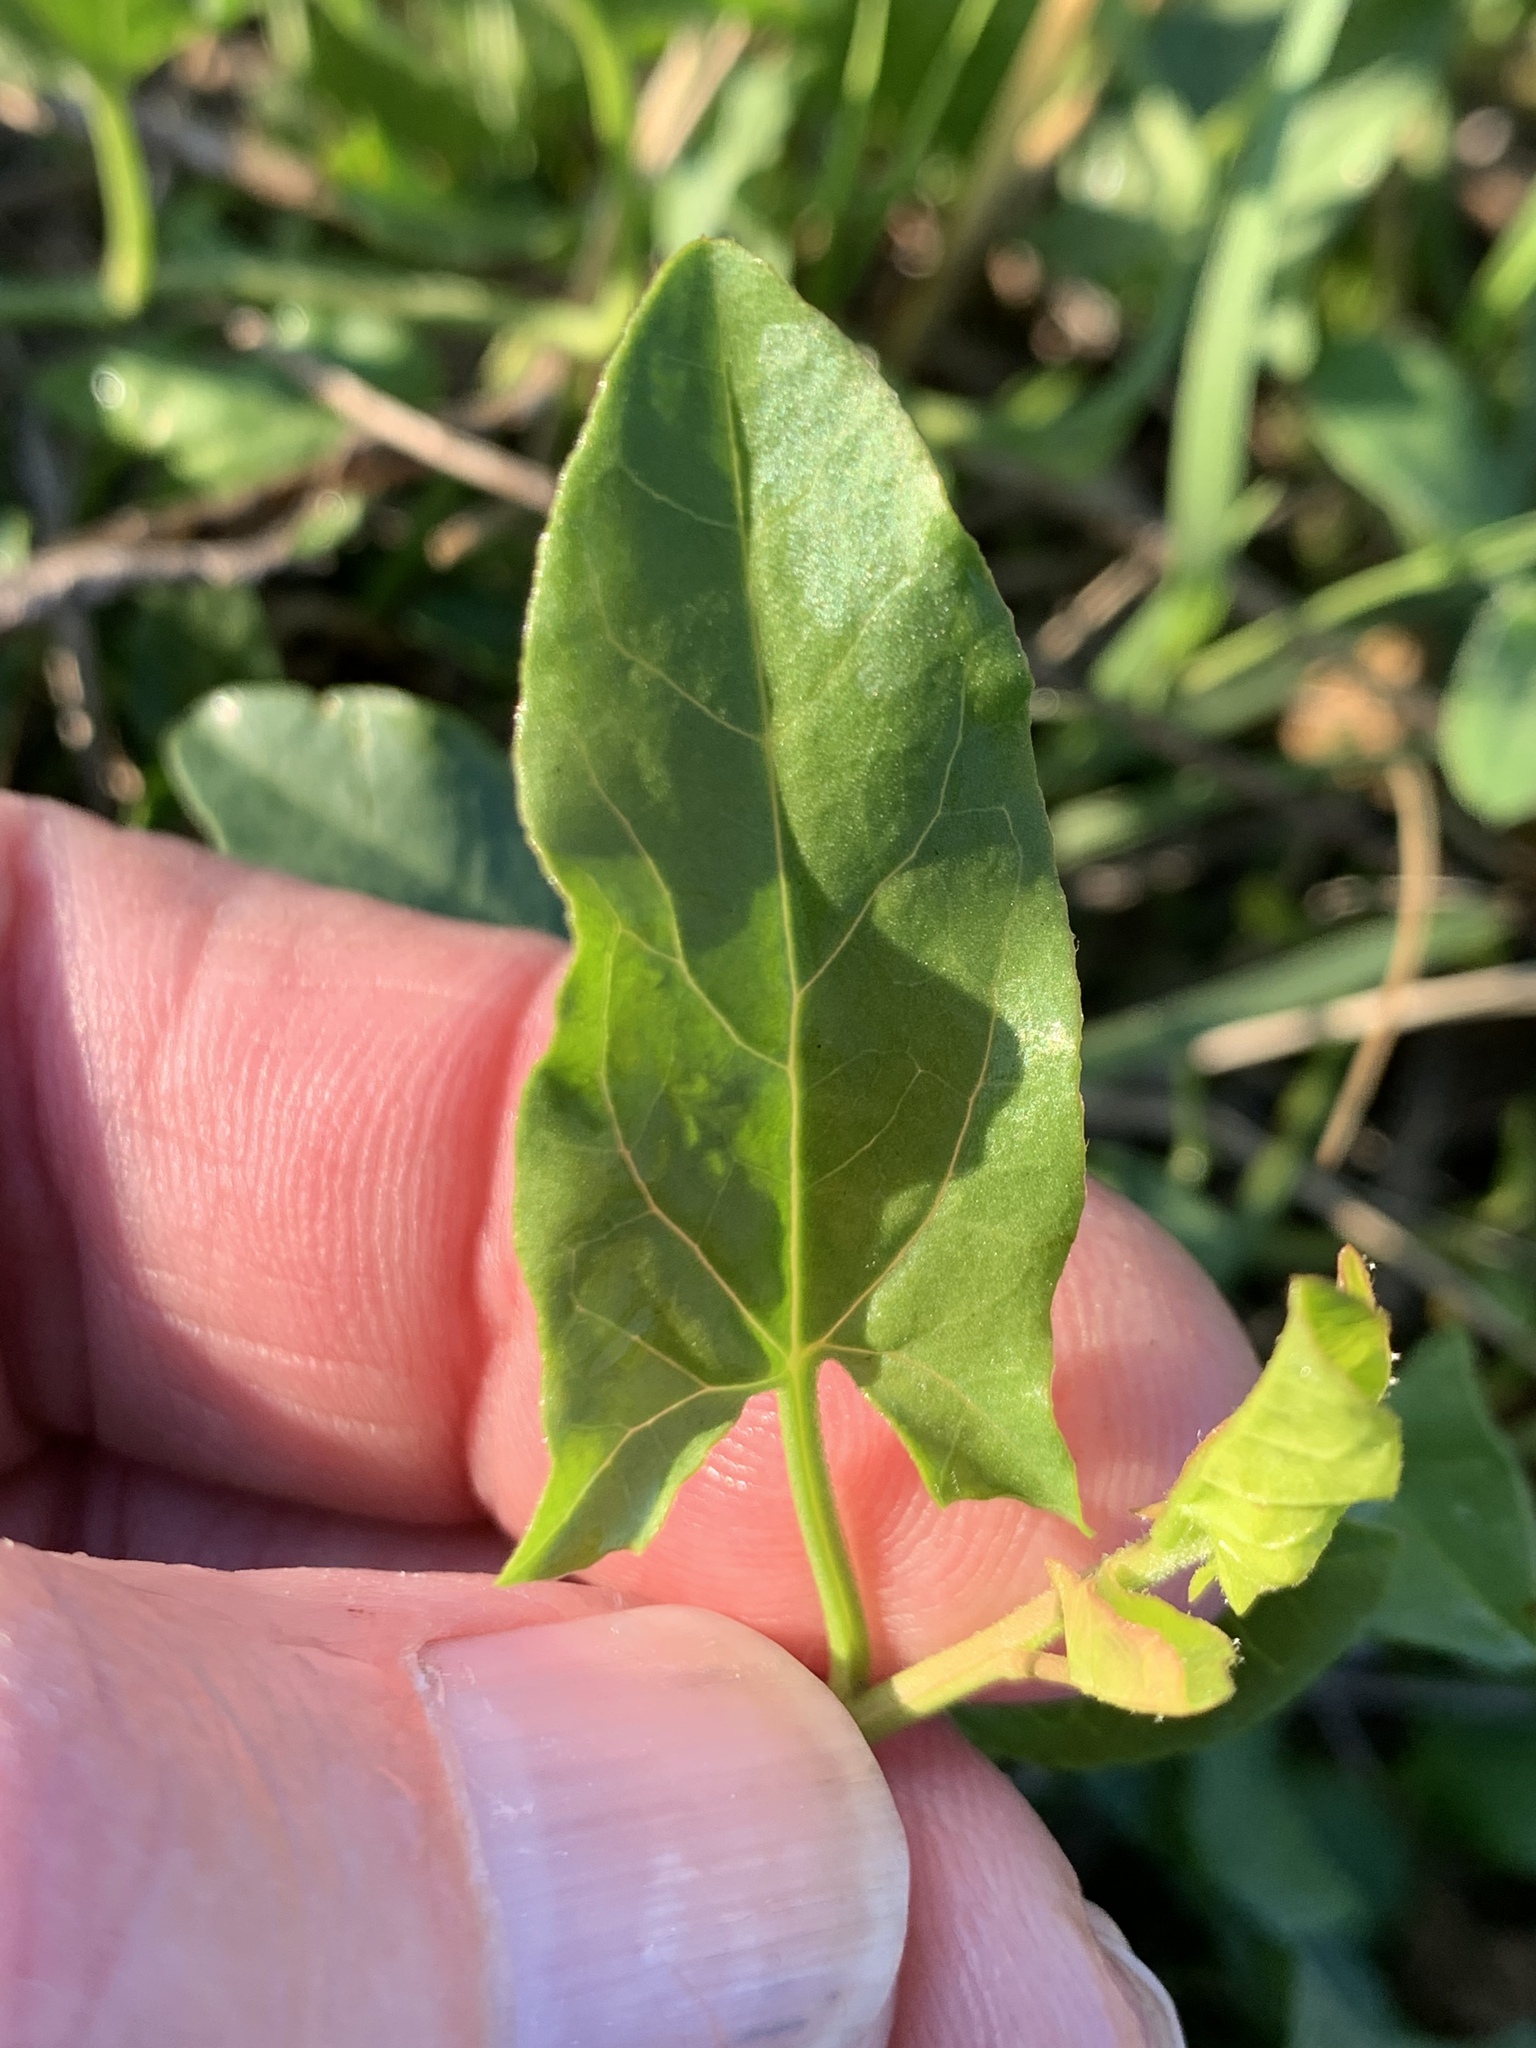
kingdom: Plantae
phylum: Tracheophyta
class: Magnoliopsida
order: Solanales
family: Convolvulaceae
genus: Convolvulus
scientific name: Convolvulus arvensis
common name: Field bindweed
